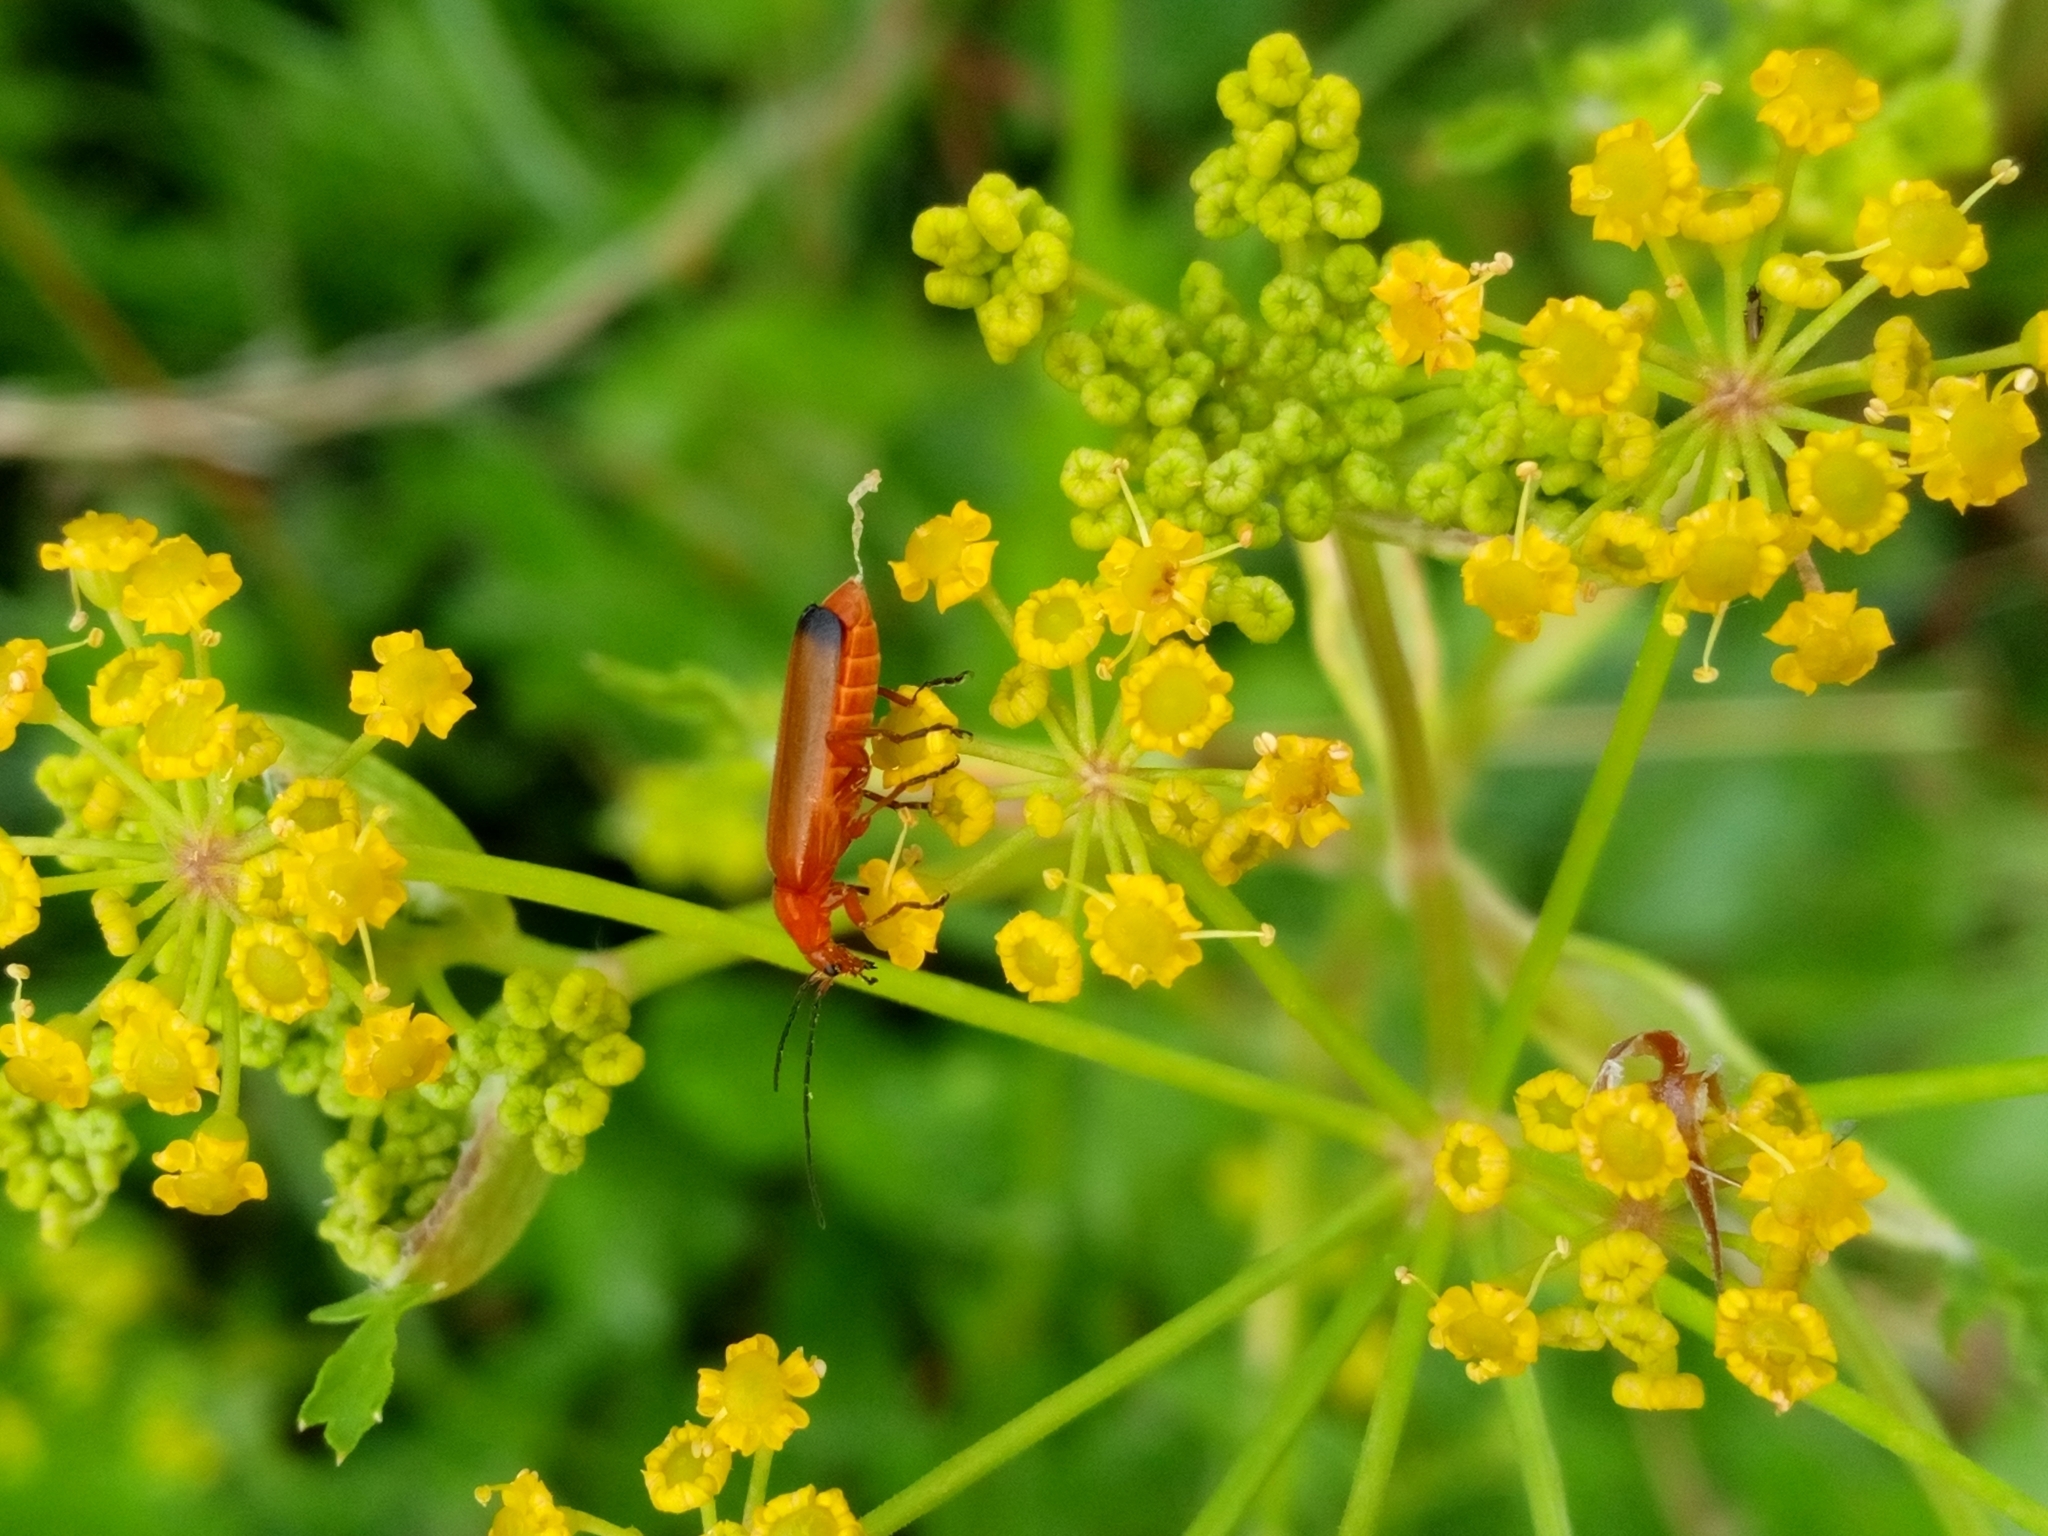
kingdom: Animalia
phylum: Arthropoda
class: Insecta
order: Coleoptera
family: Cantharidae
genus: Rhagonycha
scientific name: Rhagonycha fulva
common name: Common red soldier beetle
